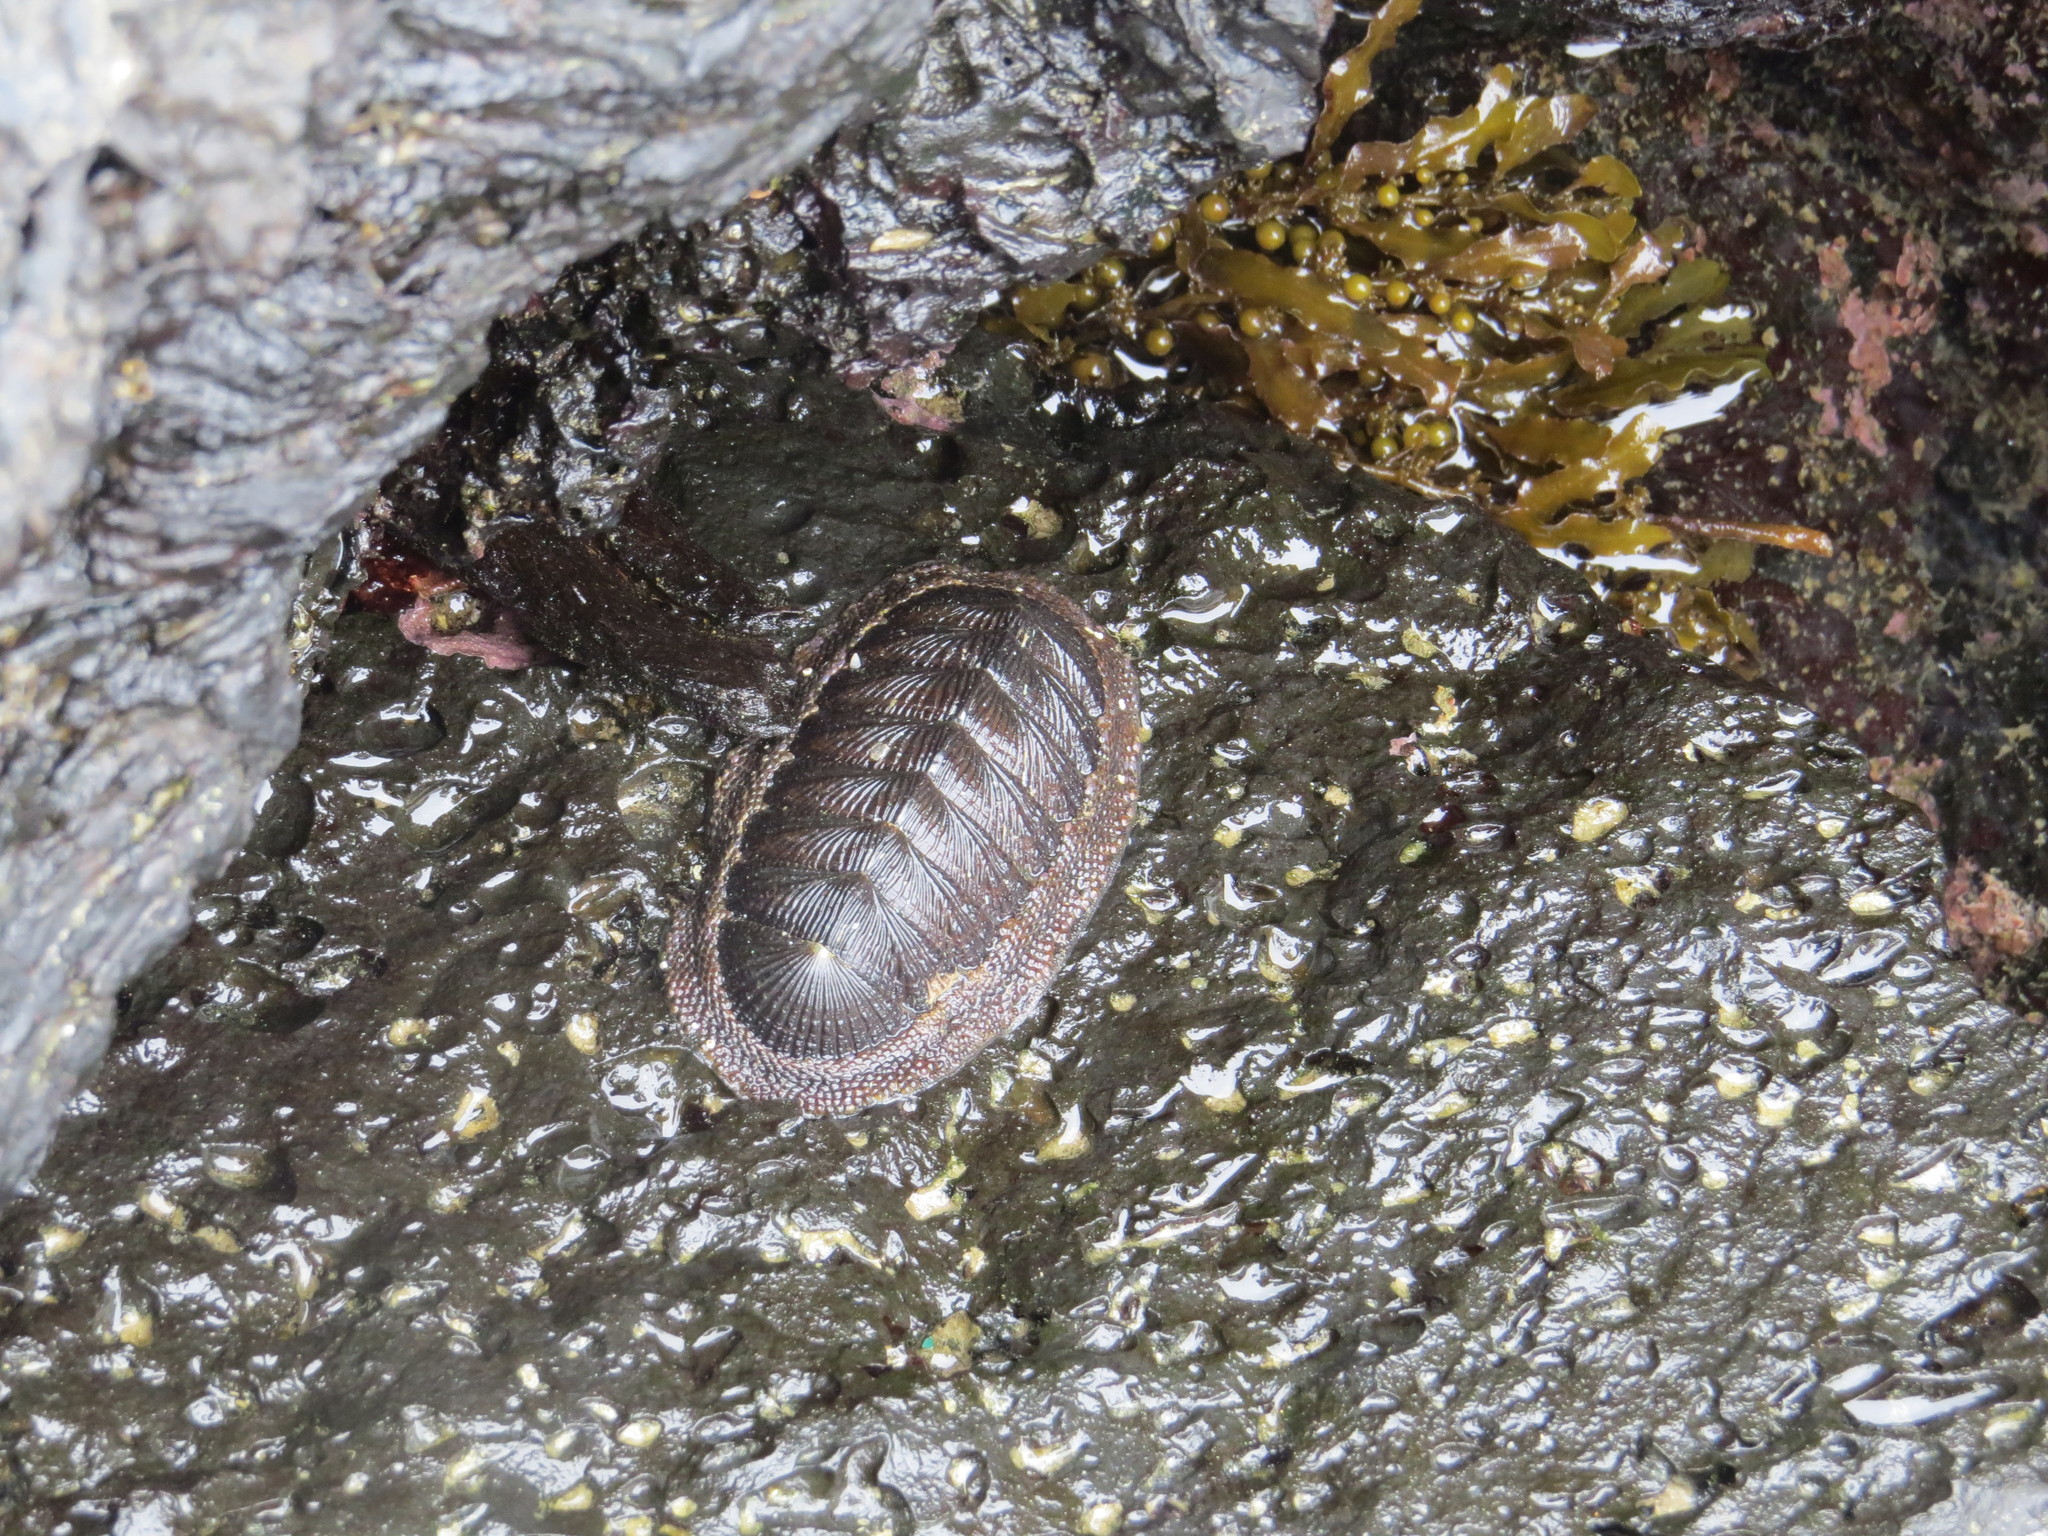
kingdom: Animalia
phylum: Mollusca
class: Polyplacophora
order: Chitonida
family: Chitonidae
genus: Radsia
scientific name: Radsia sulcatus
